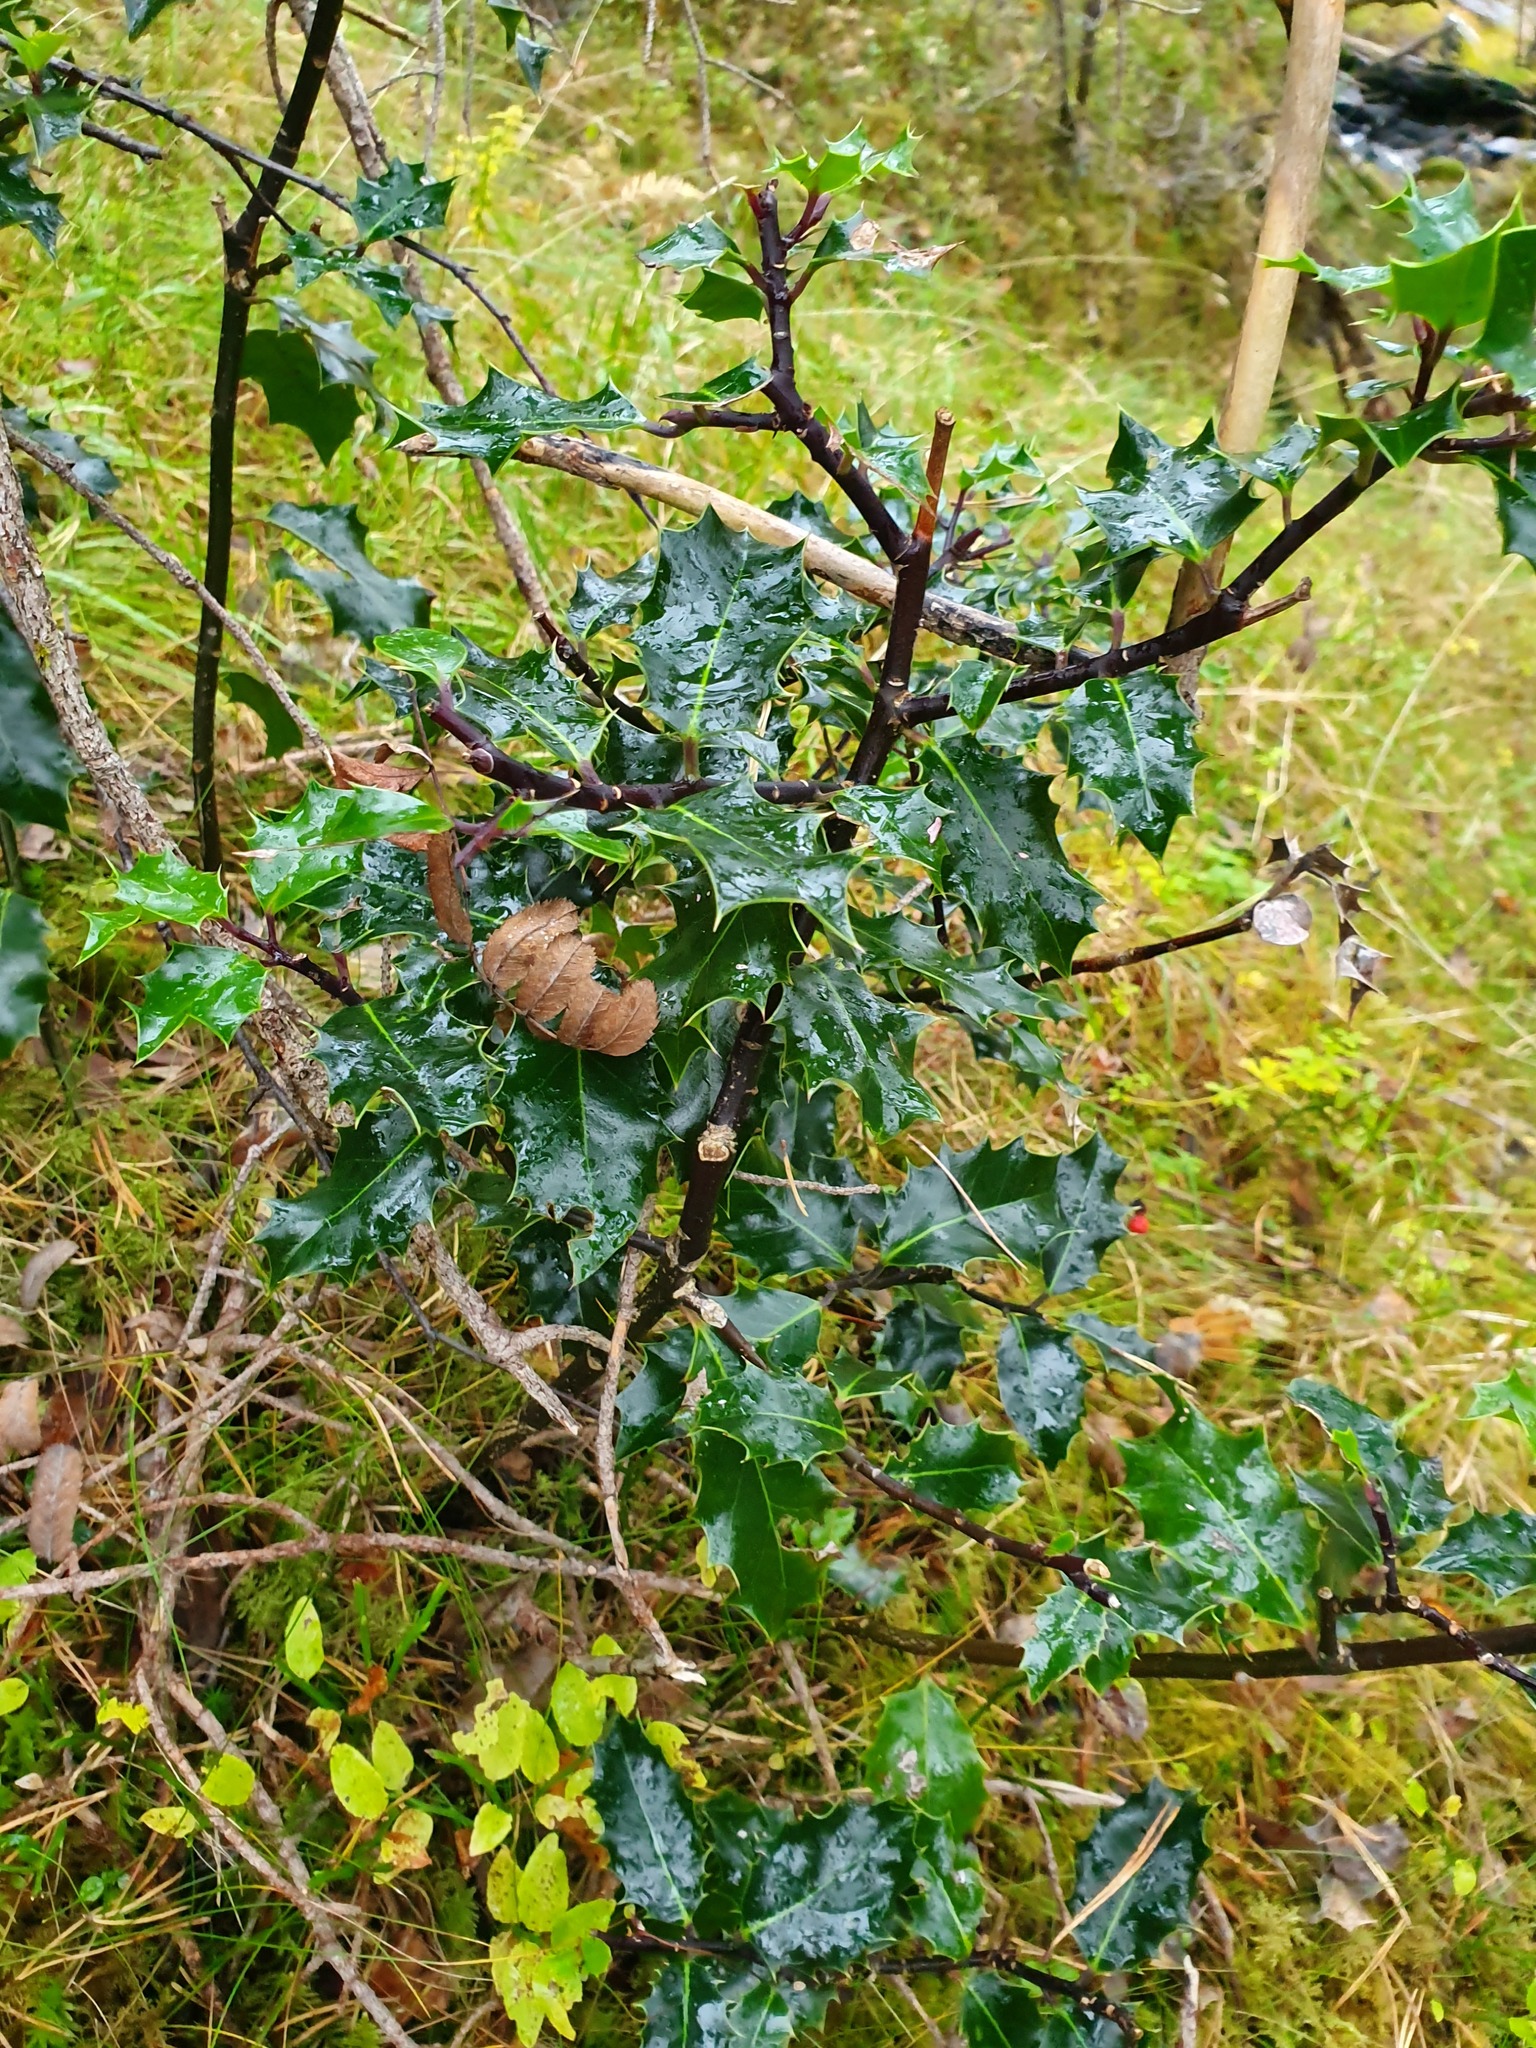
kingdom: Plantae
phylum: Tracheophyta
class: Magnoliopsida
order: Aquifoliales
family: Aquifoliaceae
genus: Ilex
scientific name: Ilex aquifolium
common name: English holly
